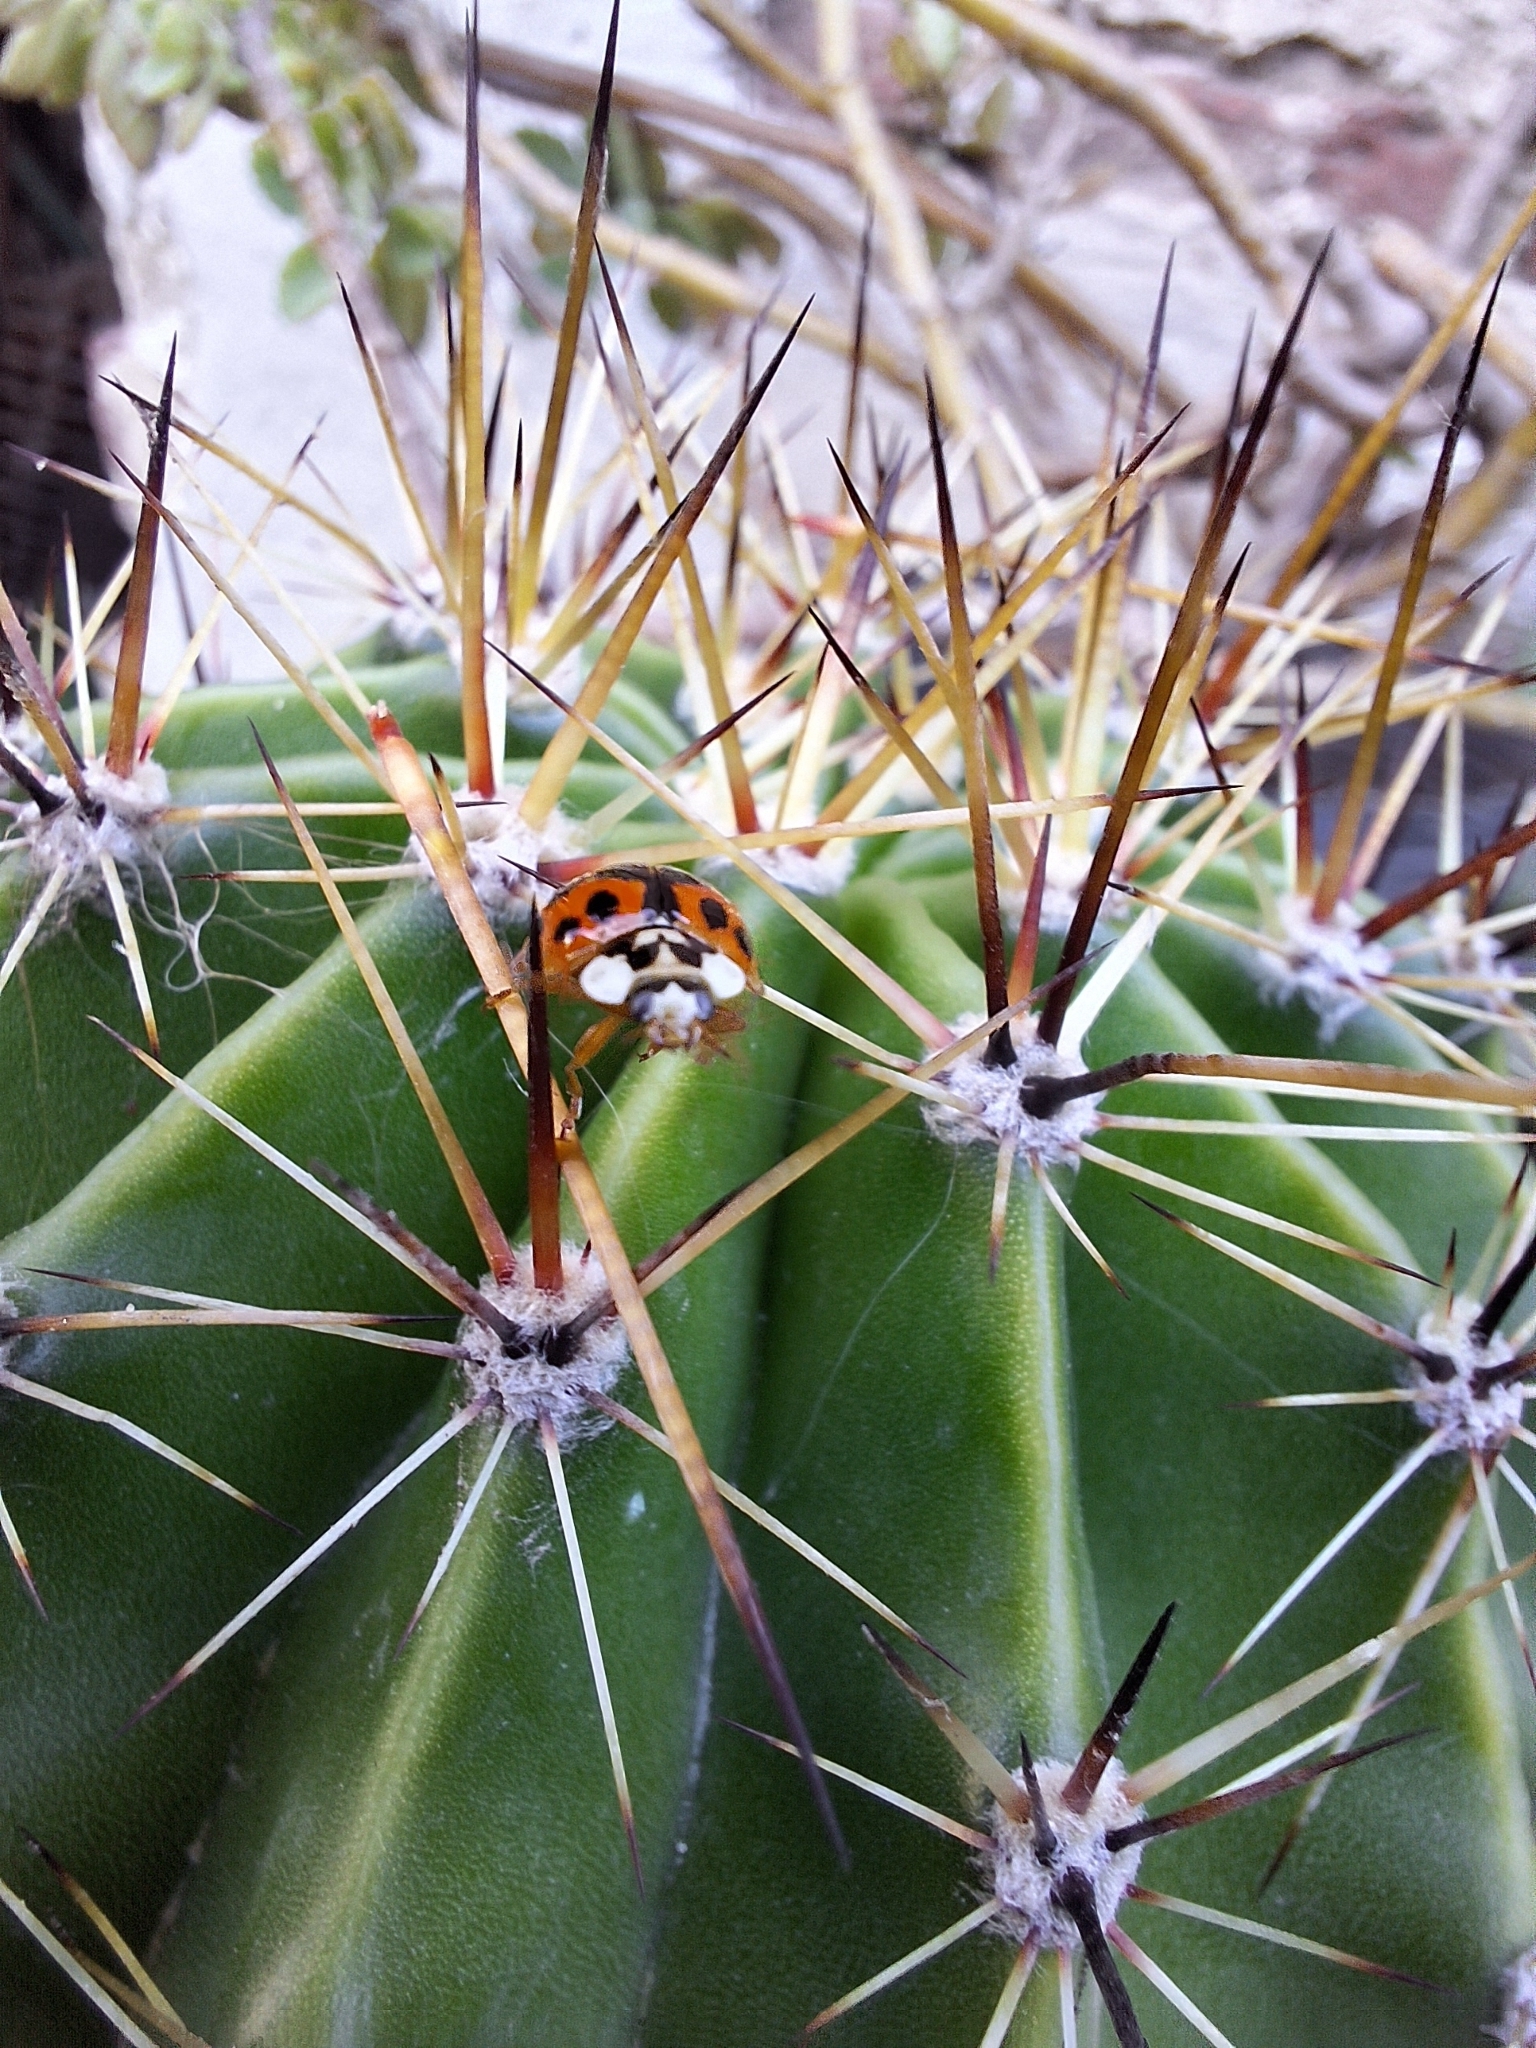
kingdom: Animalia
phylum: Arthropoda
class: Insecta
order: Coleoptera
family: Coccinellidae
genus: Harmonia
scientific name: Harmonia axyridis
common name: Harlequin ladybird
